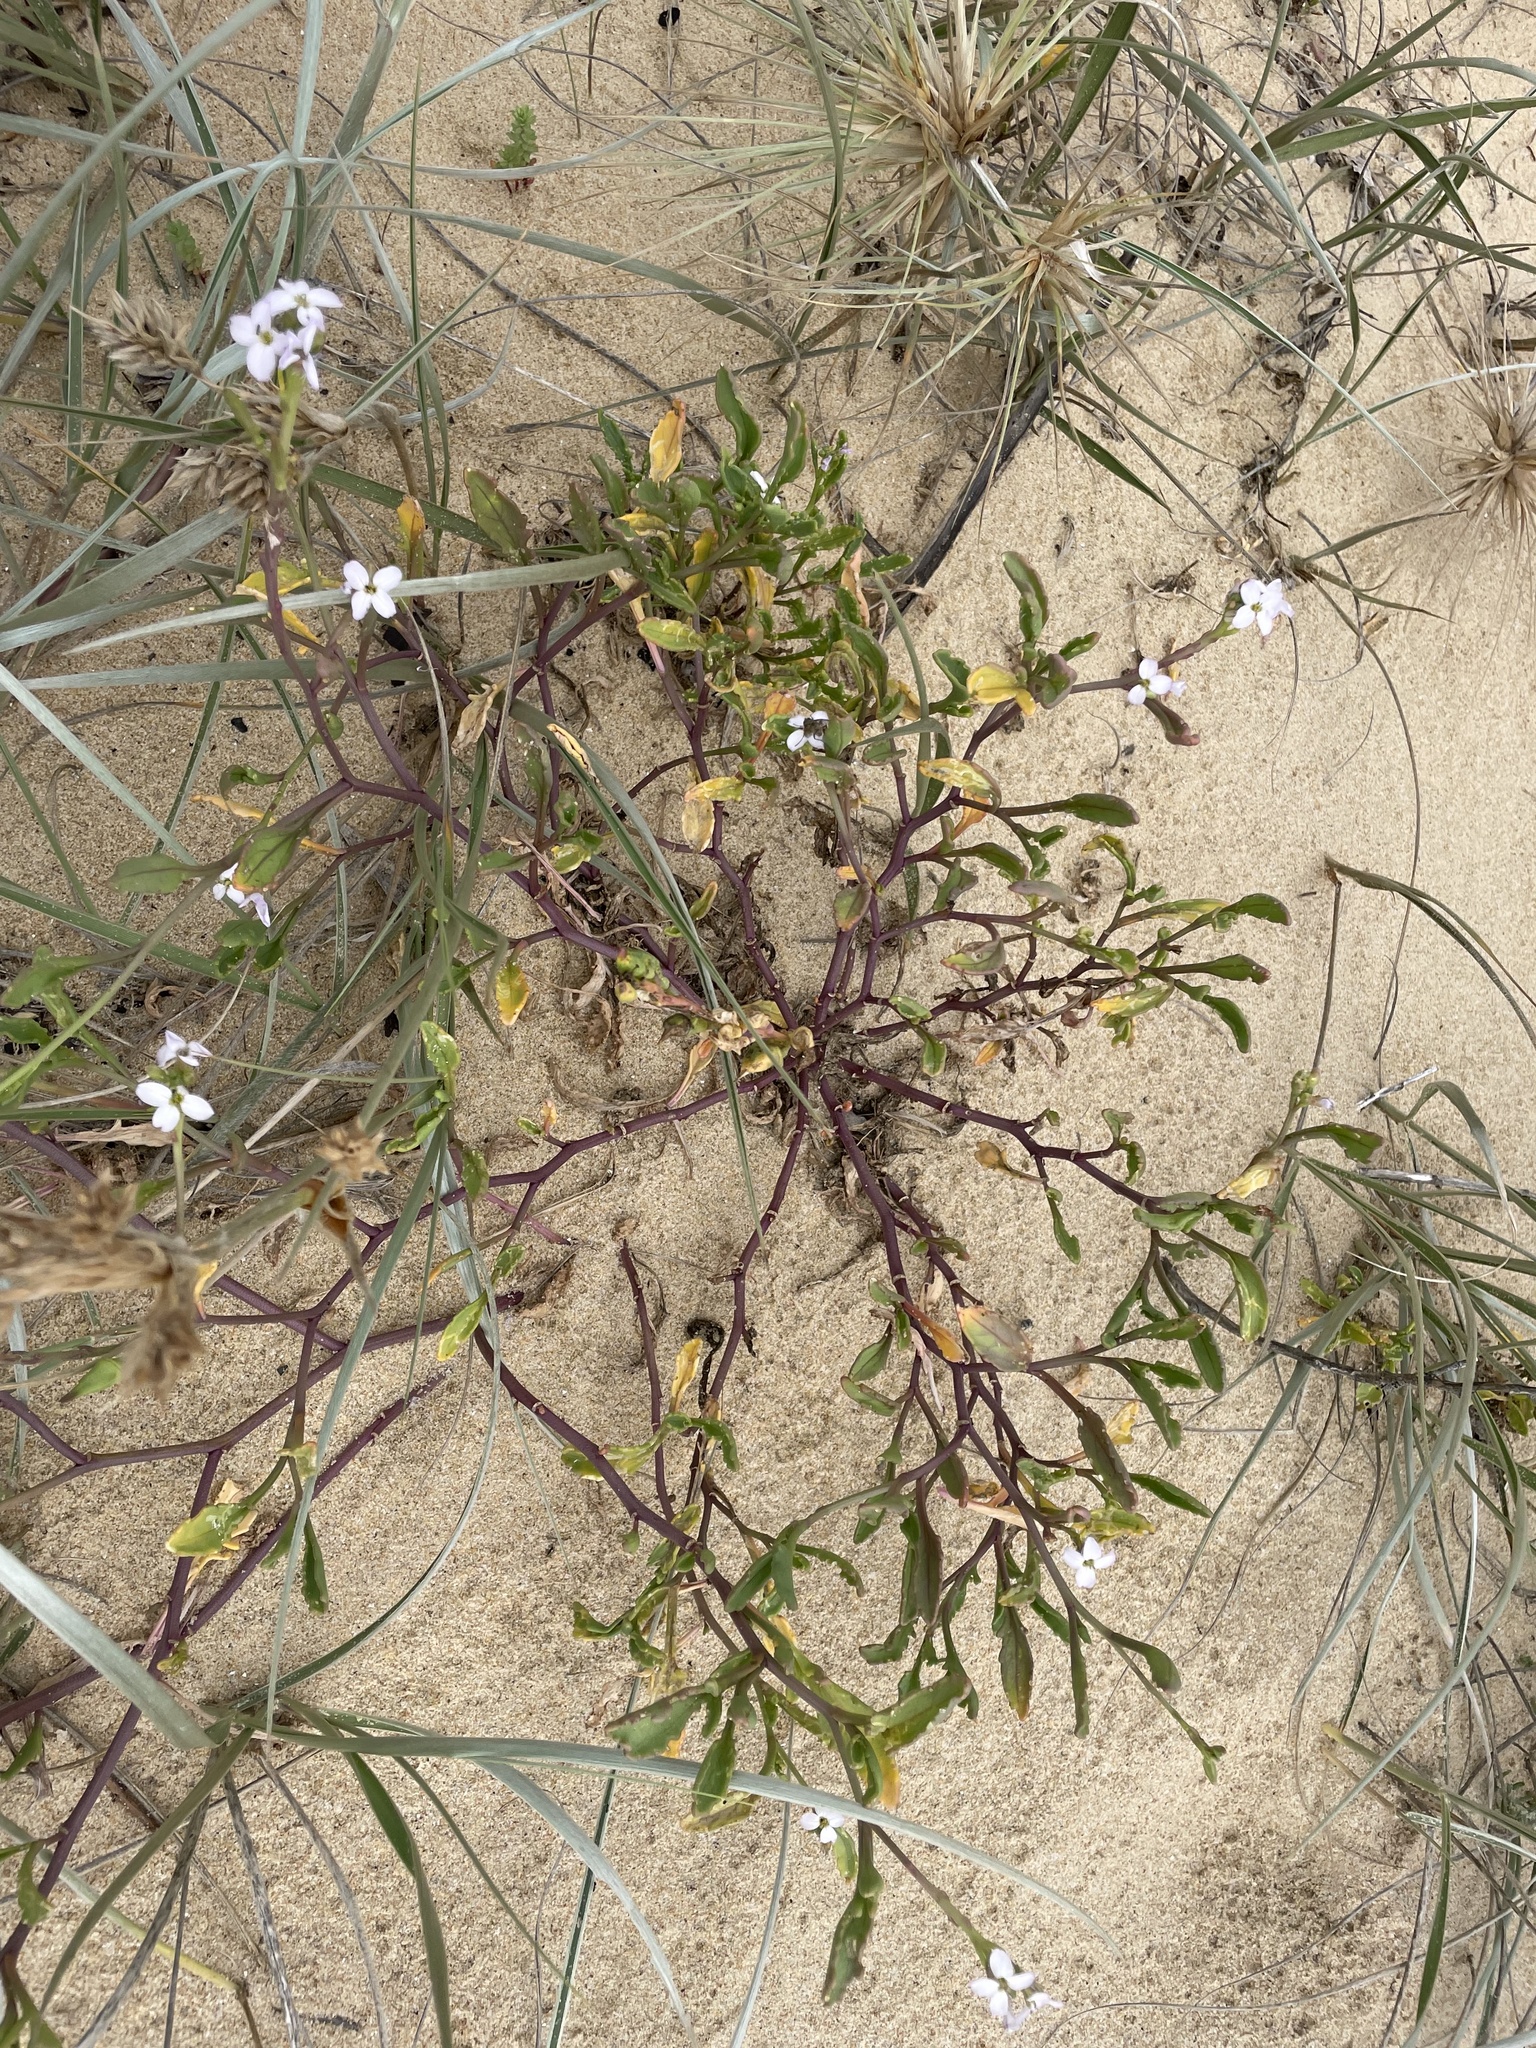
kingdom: Plantae
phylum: Tracheophyta
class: Magnoliopsida
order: Brassicales
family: Brassicaceae
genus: Cakile
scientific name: Cakile maritima
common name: Sea rocket
